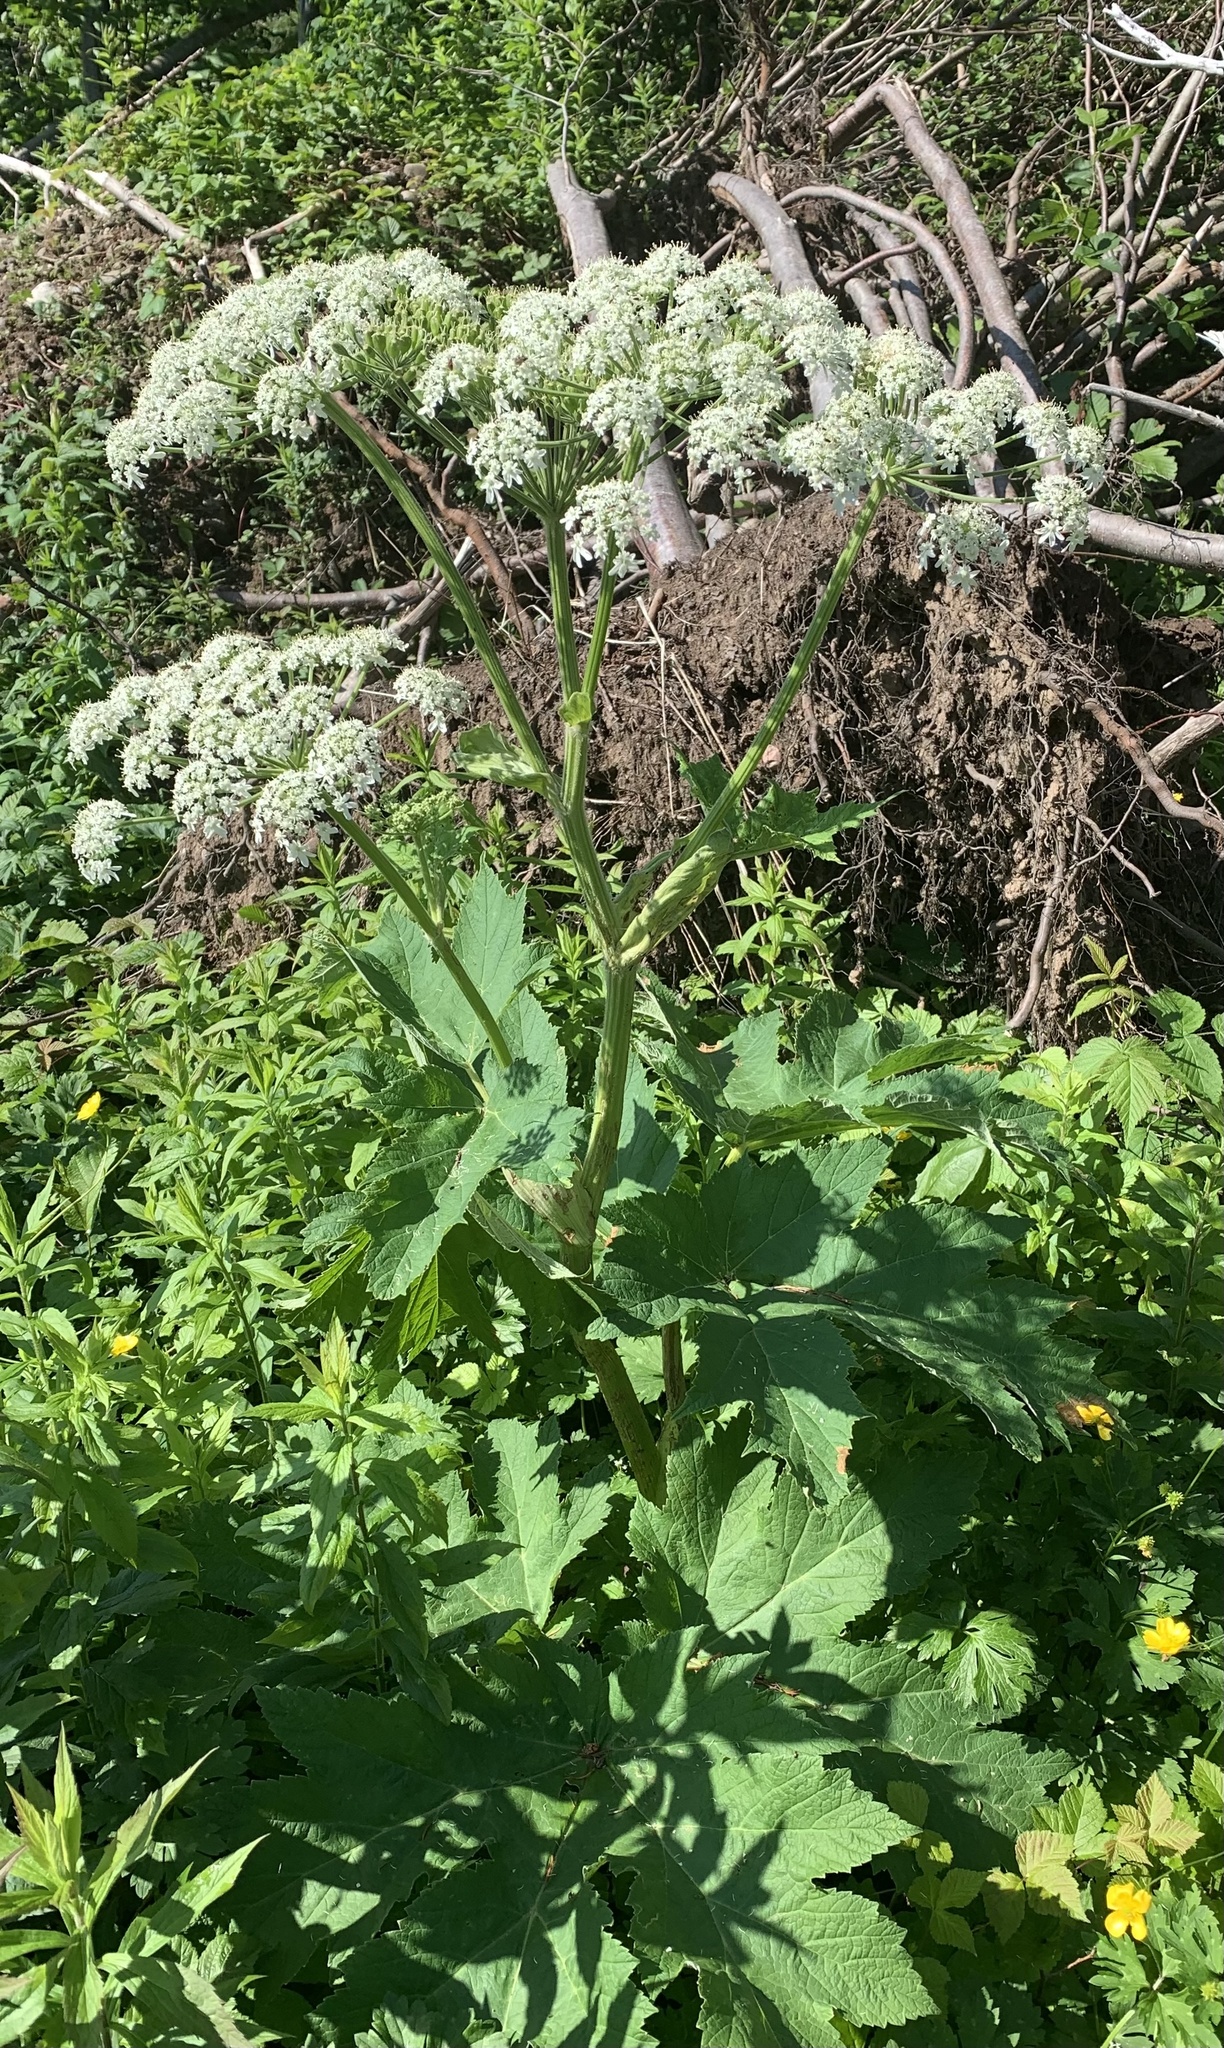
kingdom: Plantae
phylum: Tracheophyta
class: Magnoliopsida
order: Apiales
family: Apiaceae
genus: Heracleum
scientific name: Heracleum maximum
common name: American cow parsnip
